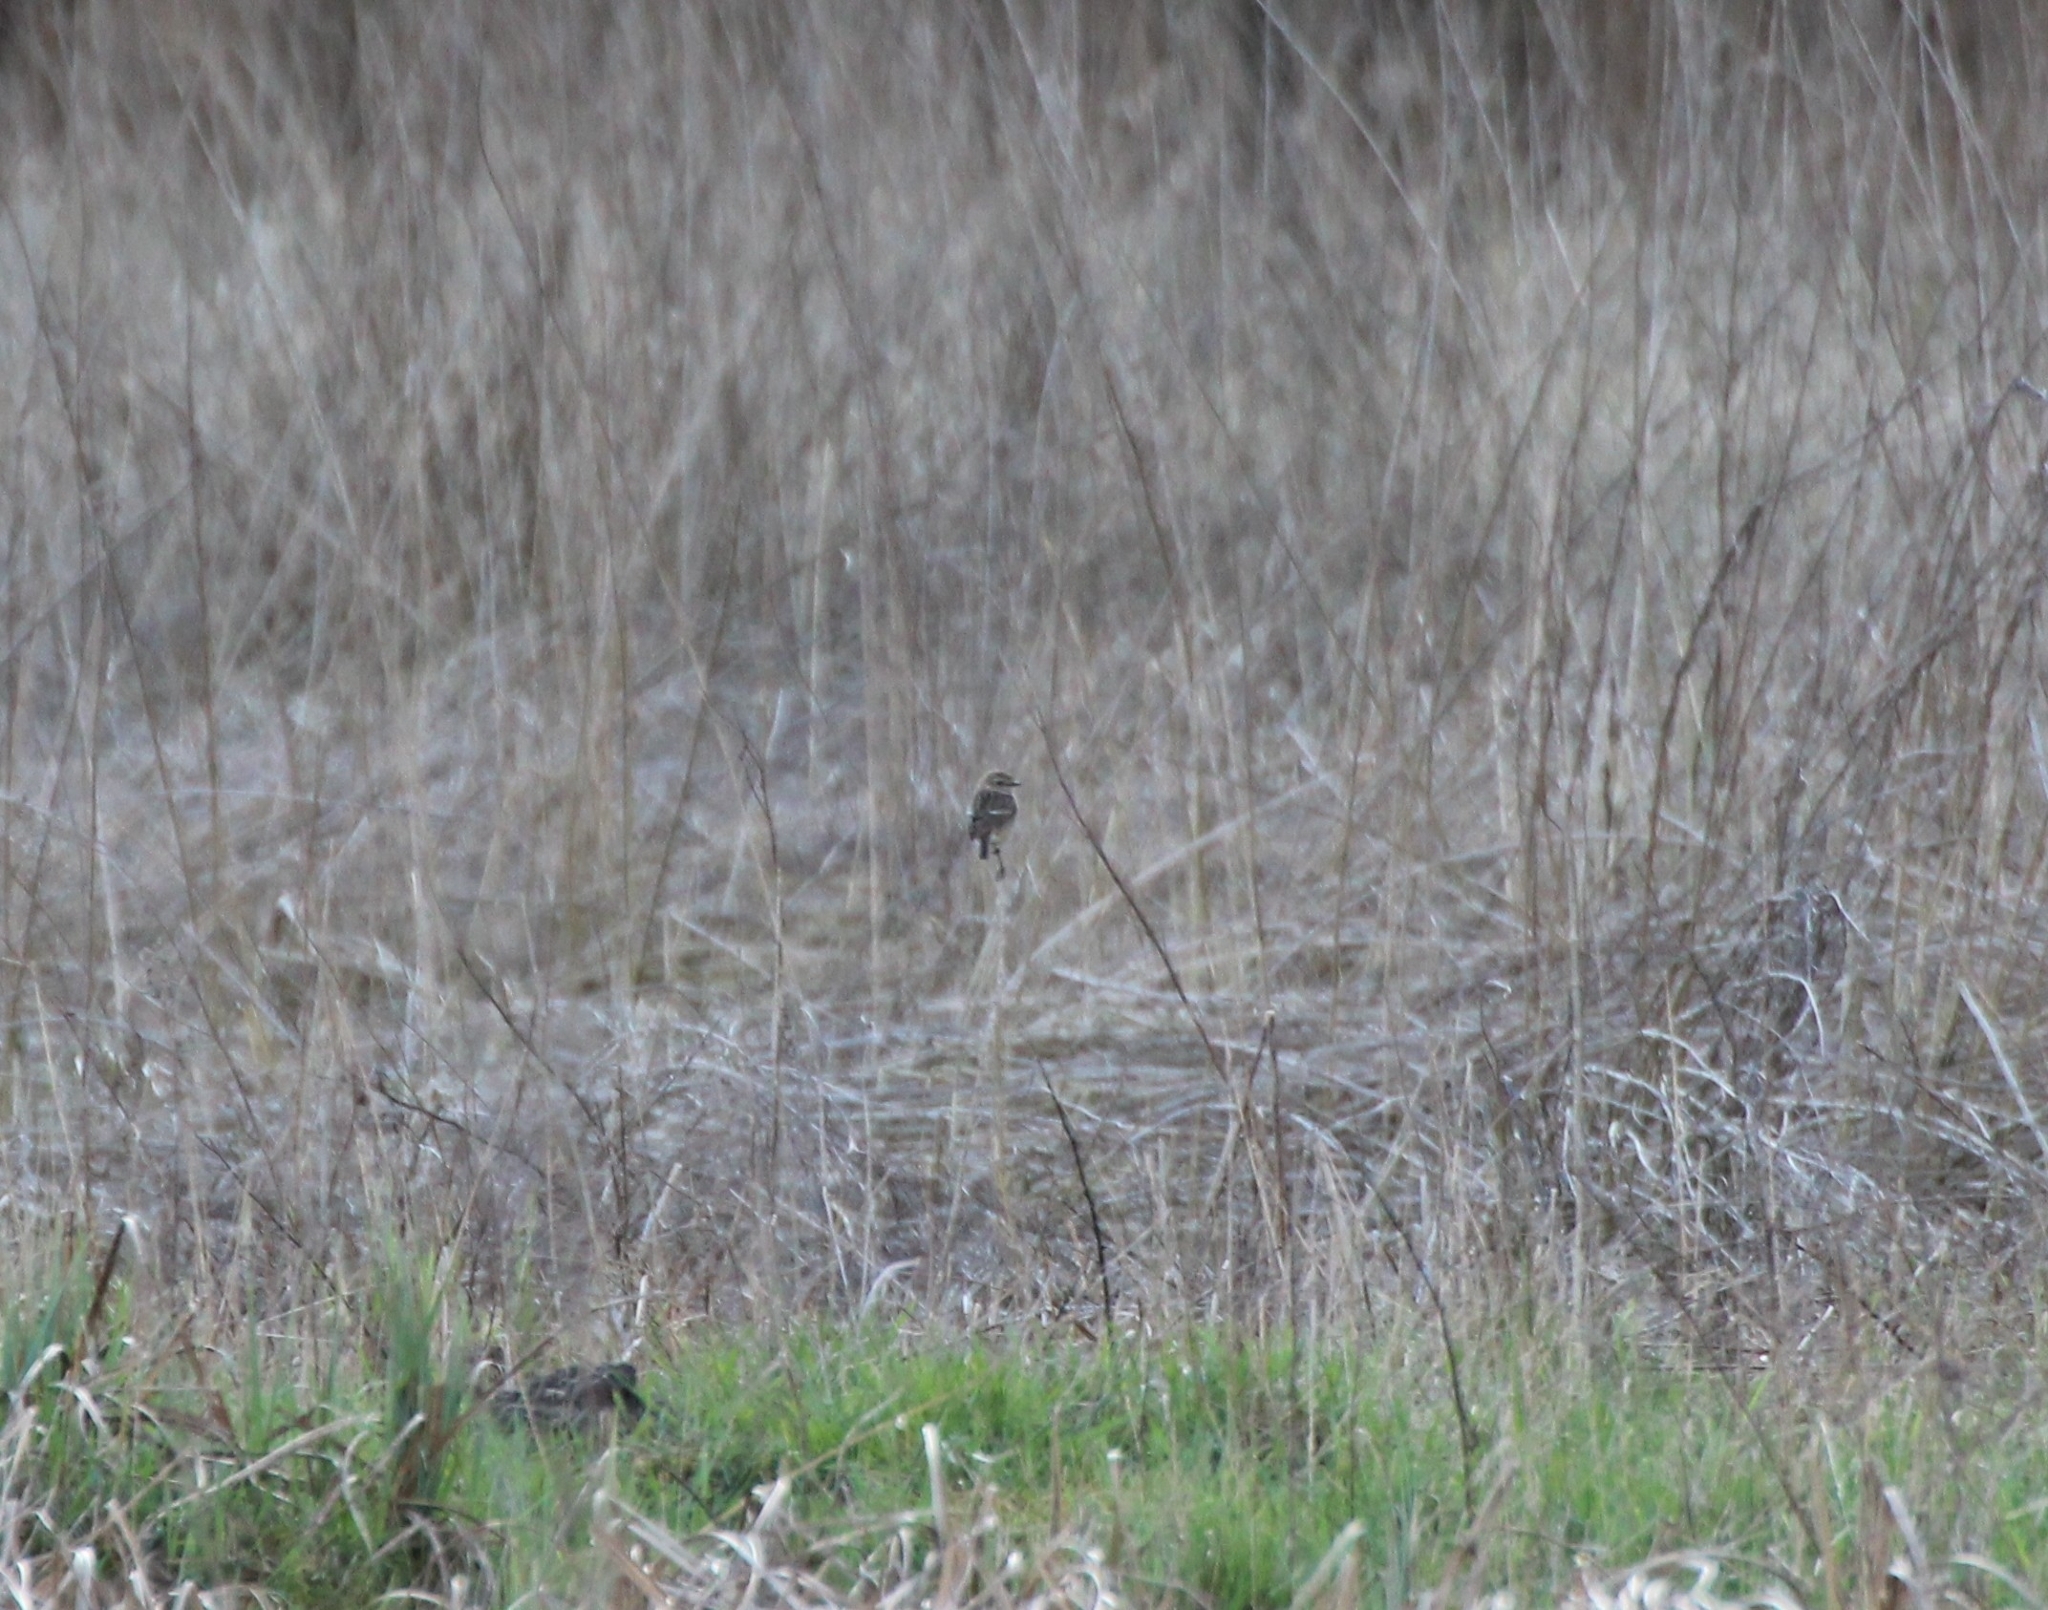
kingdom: Animalia
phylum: Chordata
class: Aves
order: Passeriformes
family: Muscicapidae
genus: Saxicola
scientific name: Saxicola rubicola
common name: European stonechat
